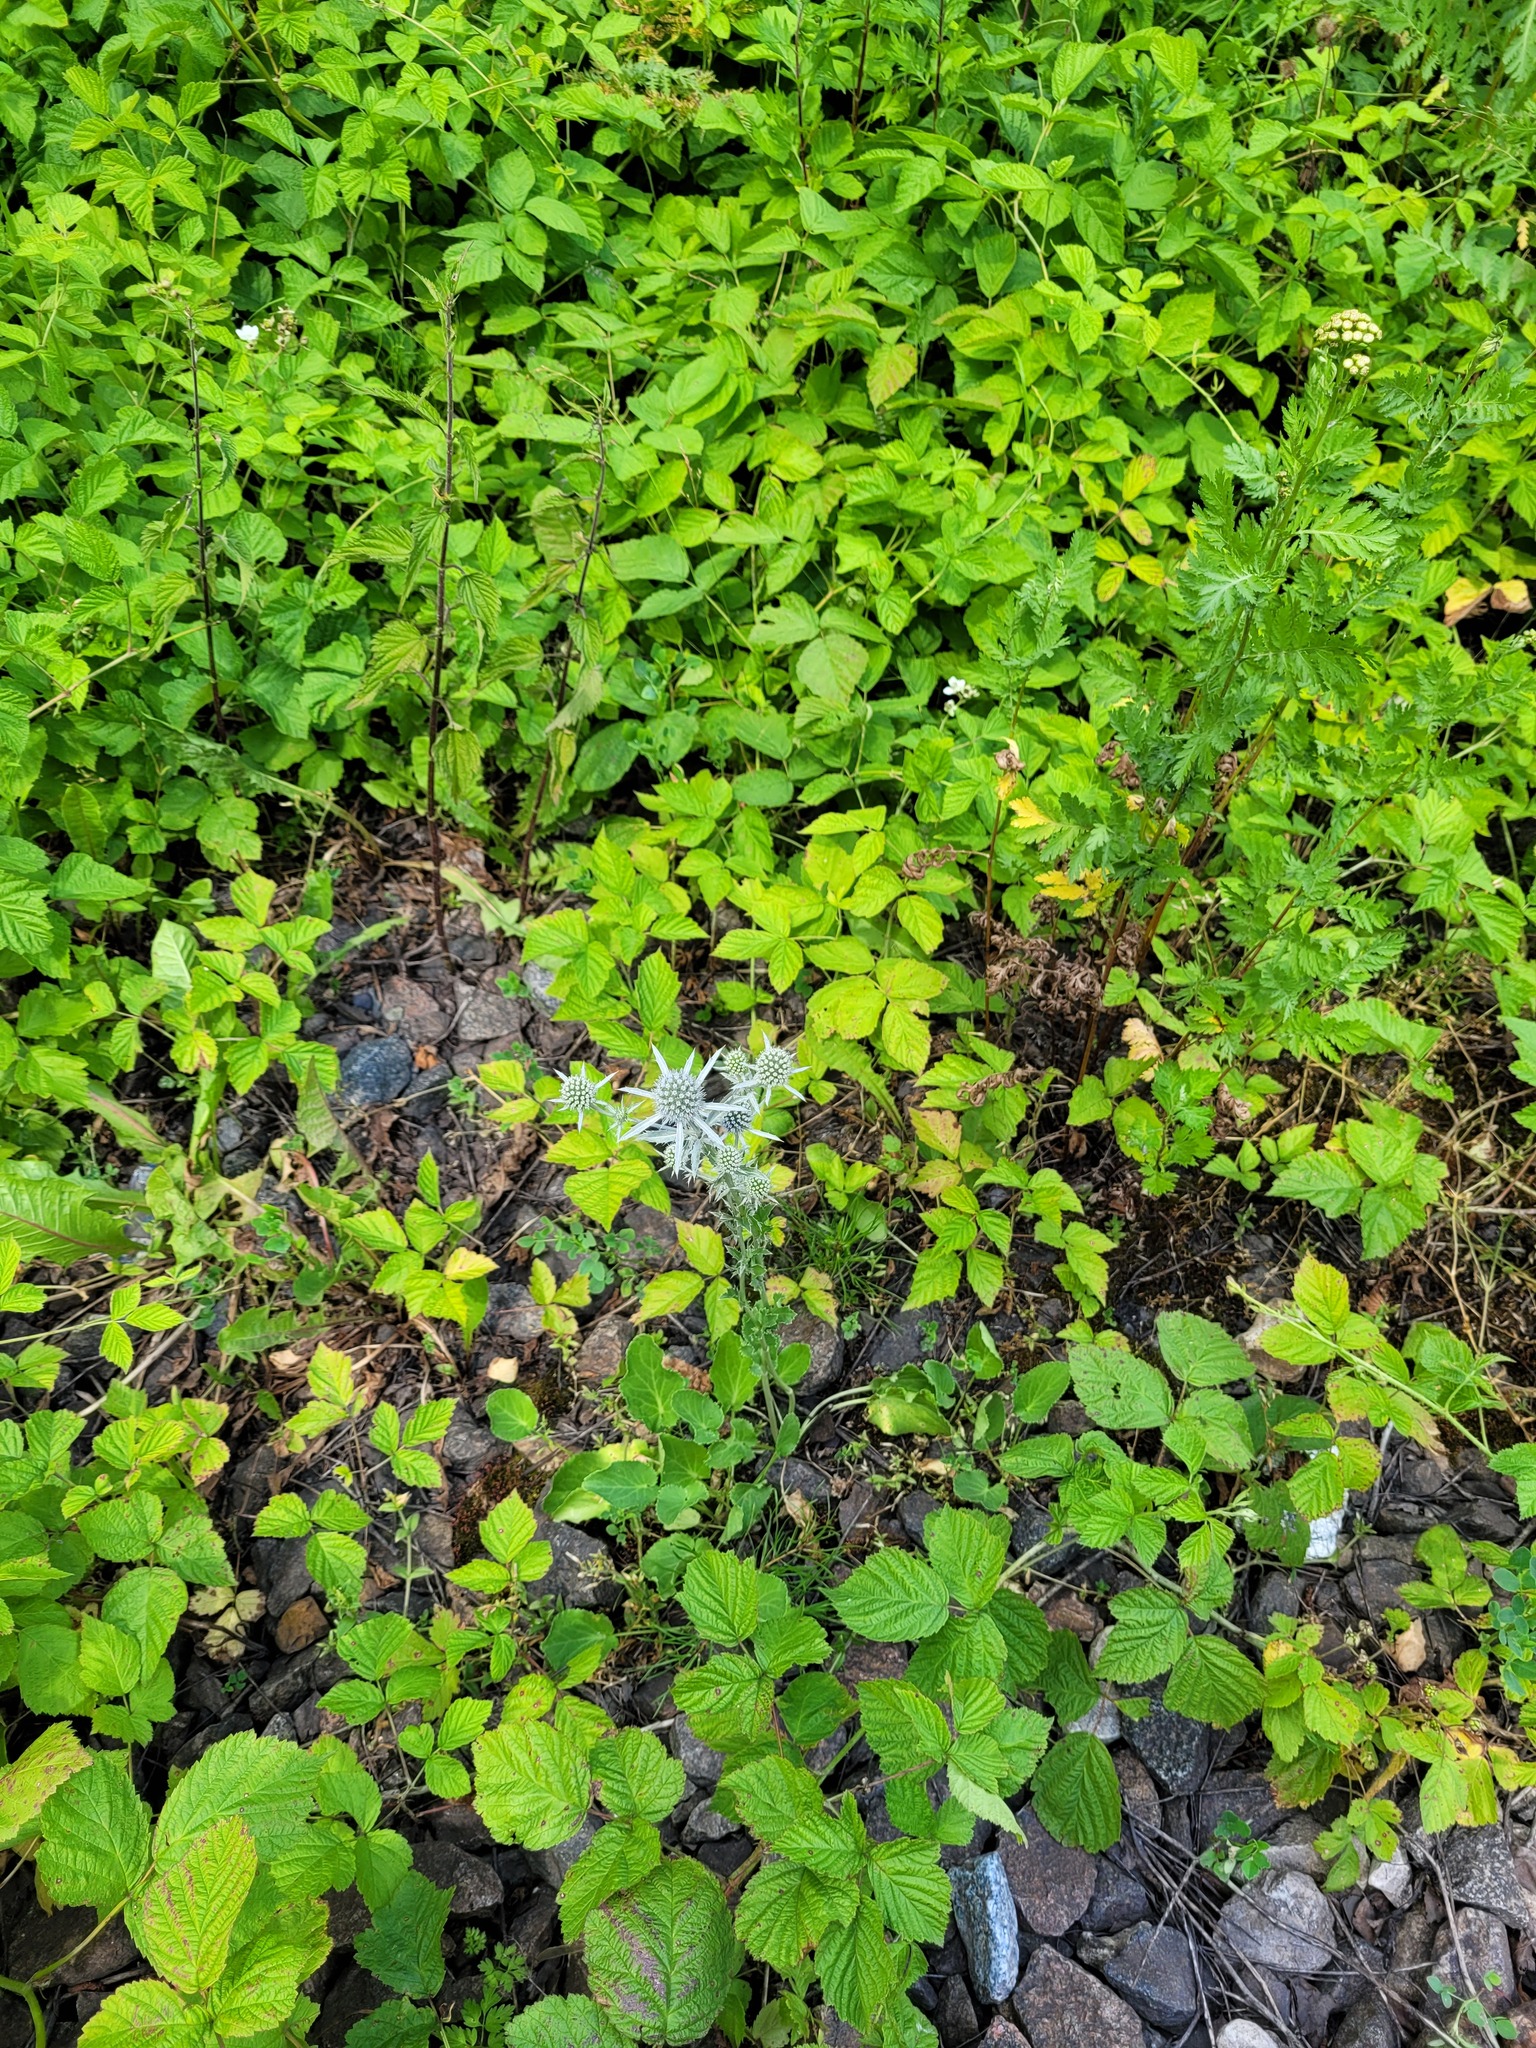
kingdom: Plantae
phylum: Tracheophyta
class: Magnoliopsida
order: Apiales
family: Apiaceae
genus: Eryngium
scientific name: Eryngium planum
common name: Blue eryngo
